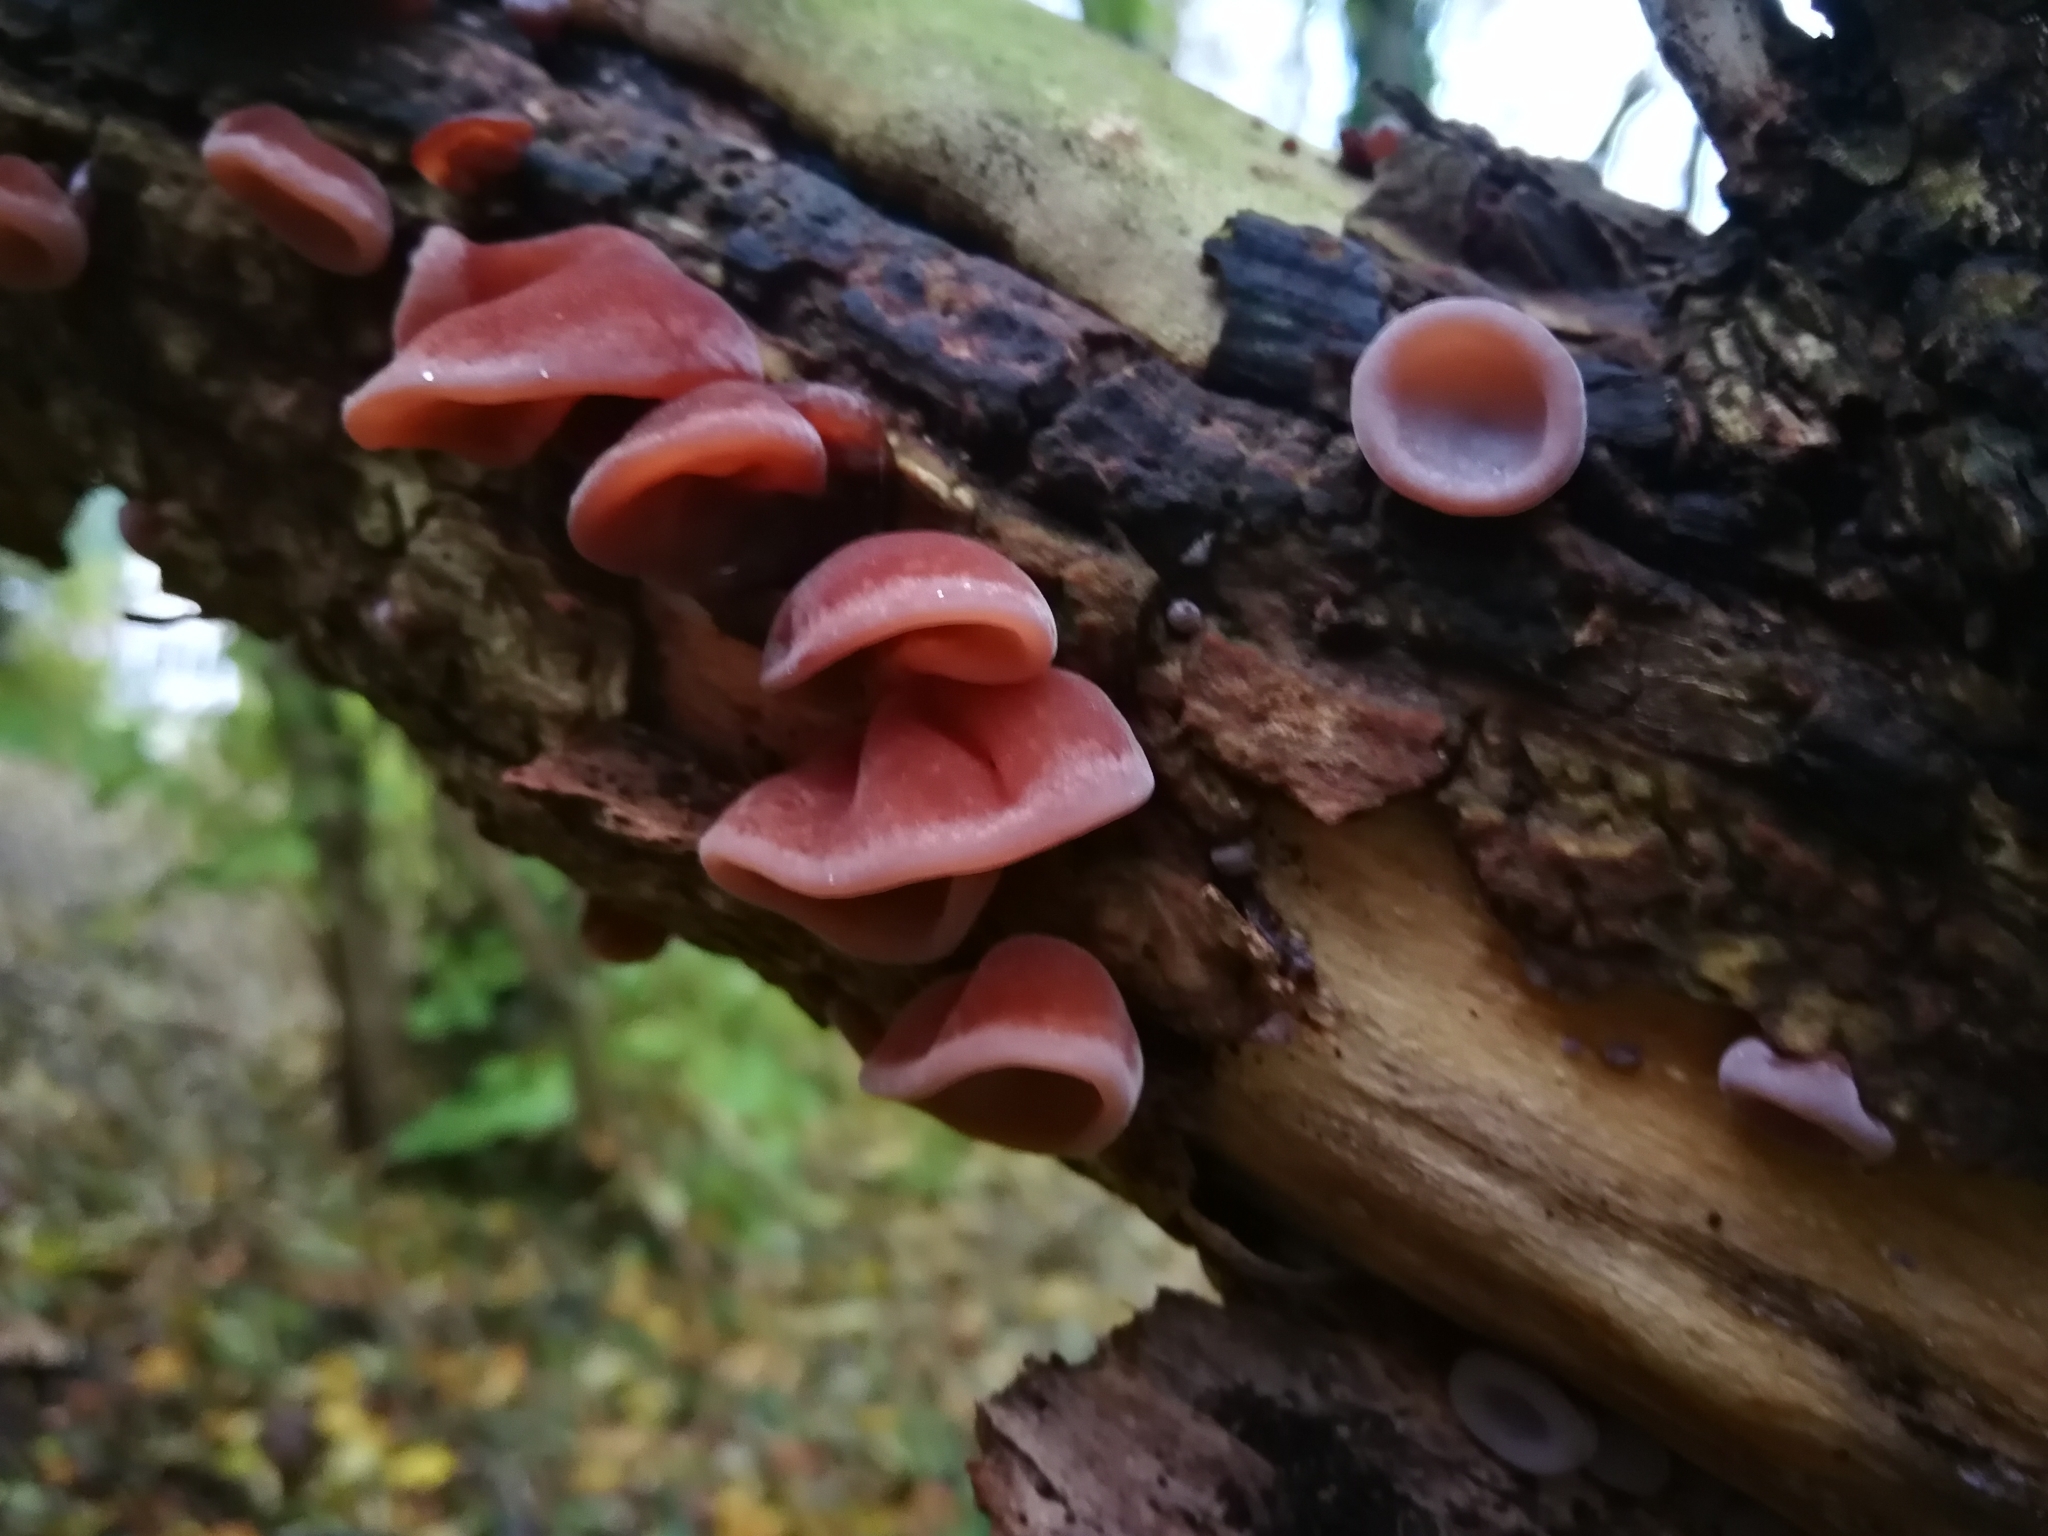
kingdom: Fungi
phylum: Basidiomycota
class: Agaricomycetes
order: Auriculariales
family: Auriculariaceae
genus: Auricularia
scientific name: Auricularia auricula-judae
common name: Jelly ear
